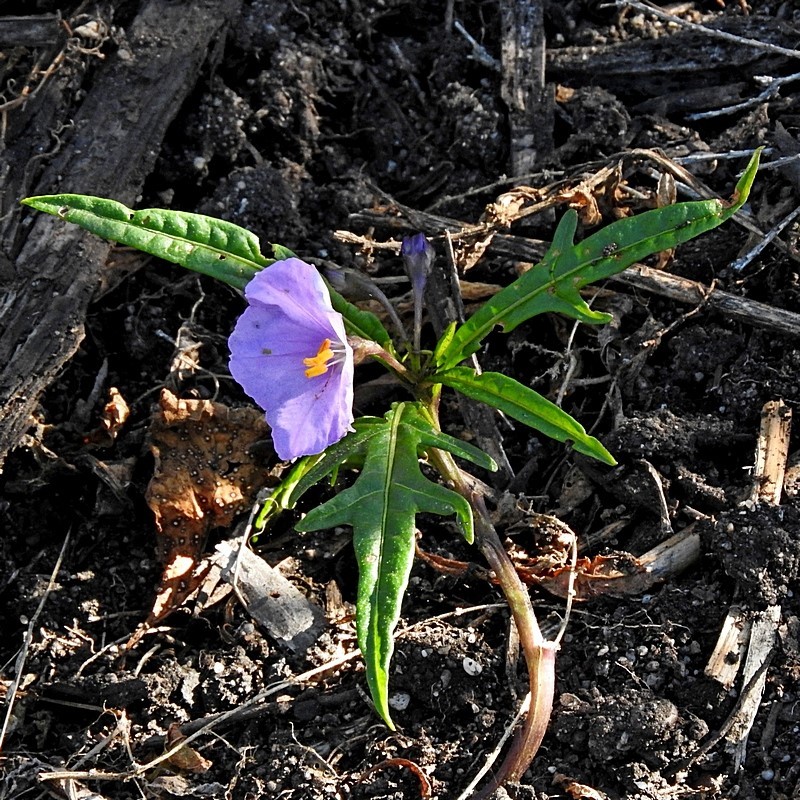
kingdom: Plantae
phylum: Tracheophyta
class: Magnoliopsida
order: Solanales
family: Solanaceae
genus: Solanum
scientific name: Solanum vescum
